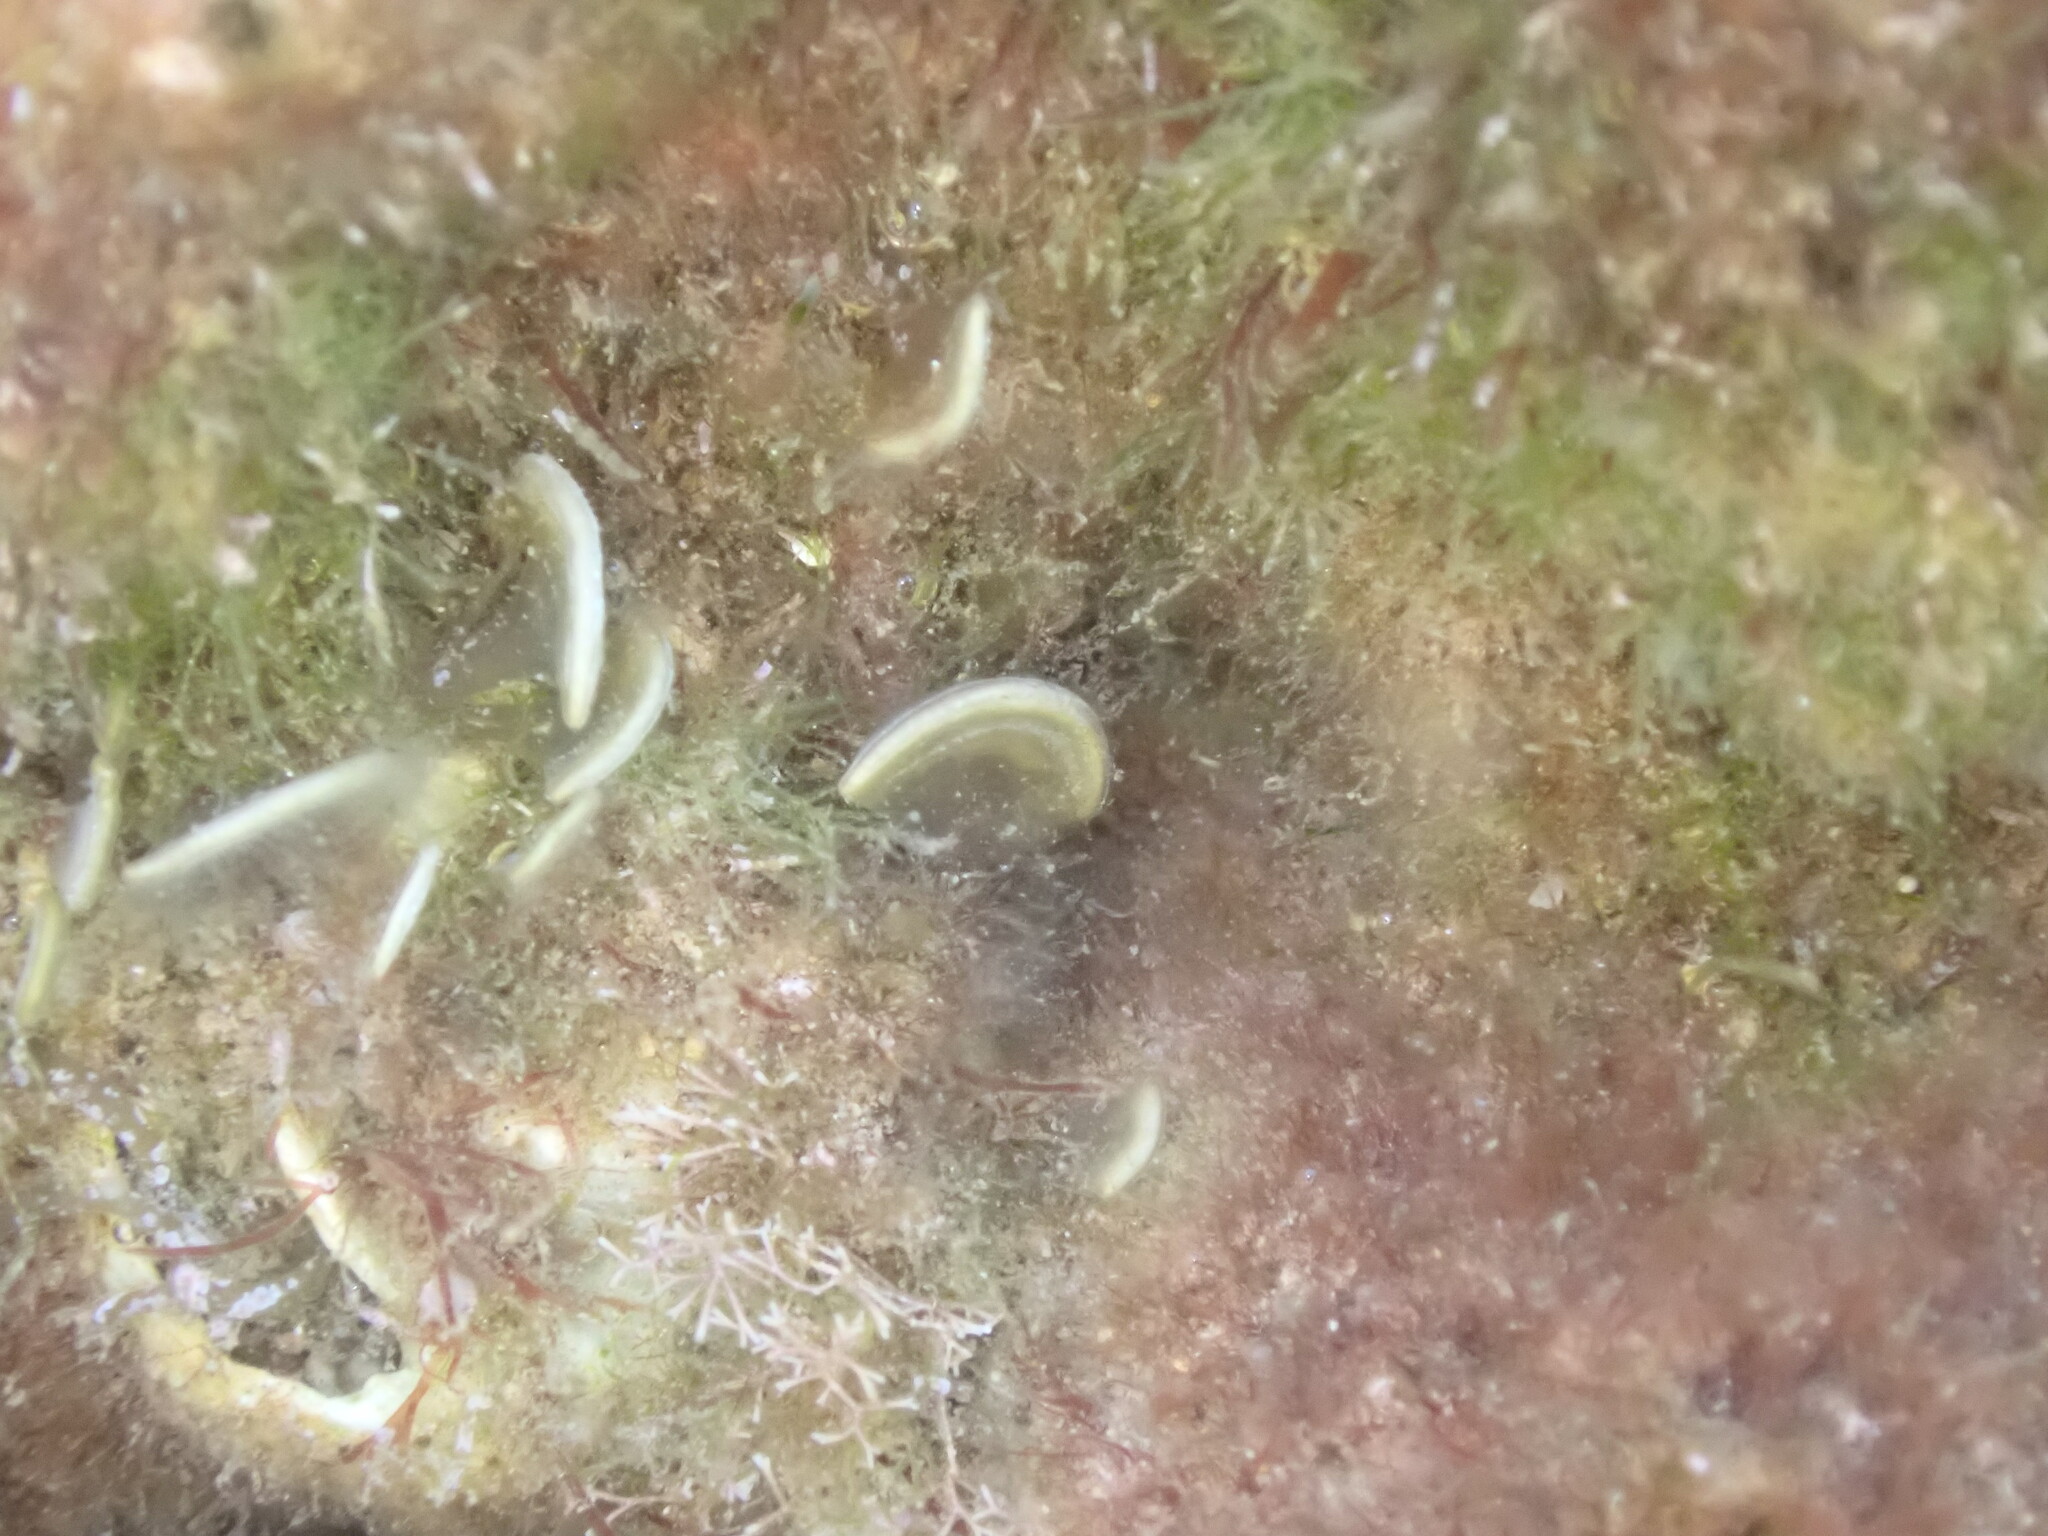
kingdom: Chromista
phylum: Ochrophyta
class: Phaeophyceae
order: Dictyotales
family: Dictyotaceae
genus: Padina
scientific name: Padina
